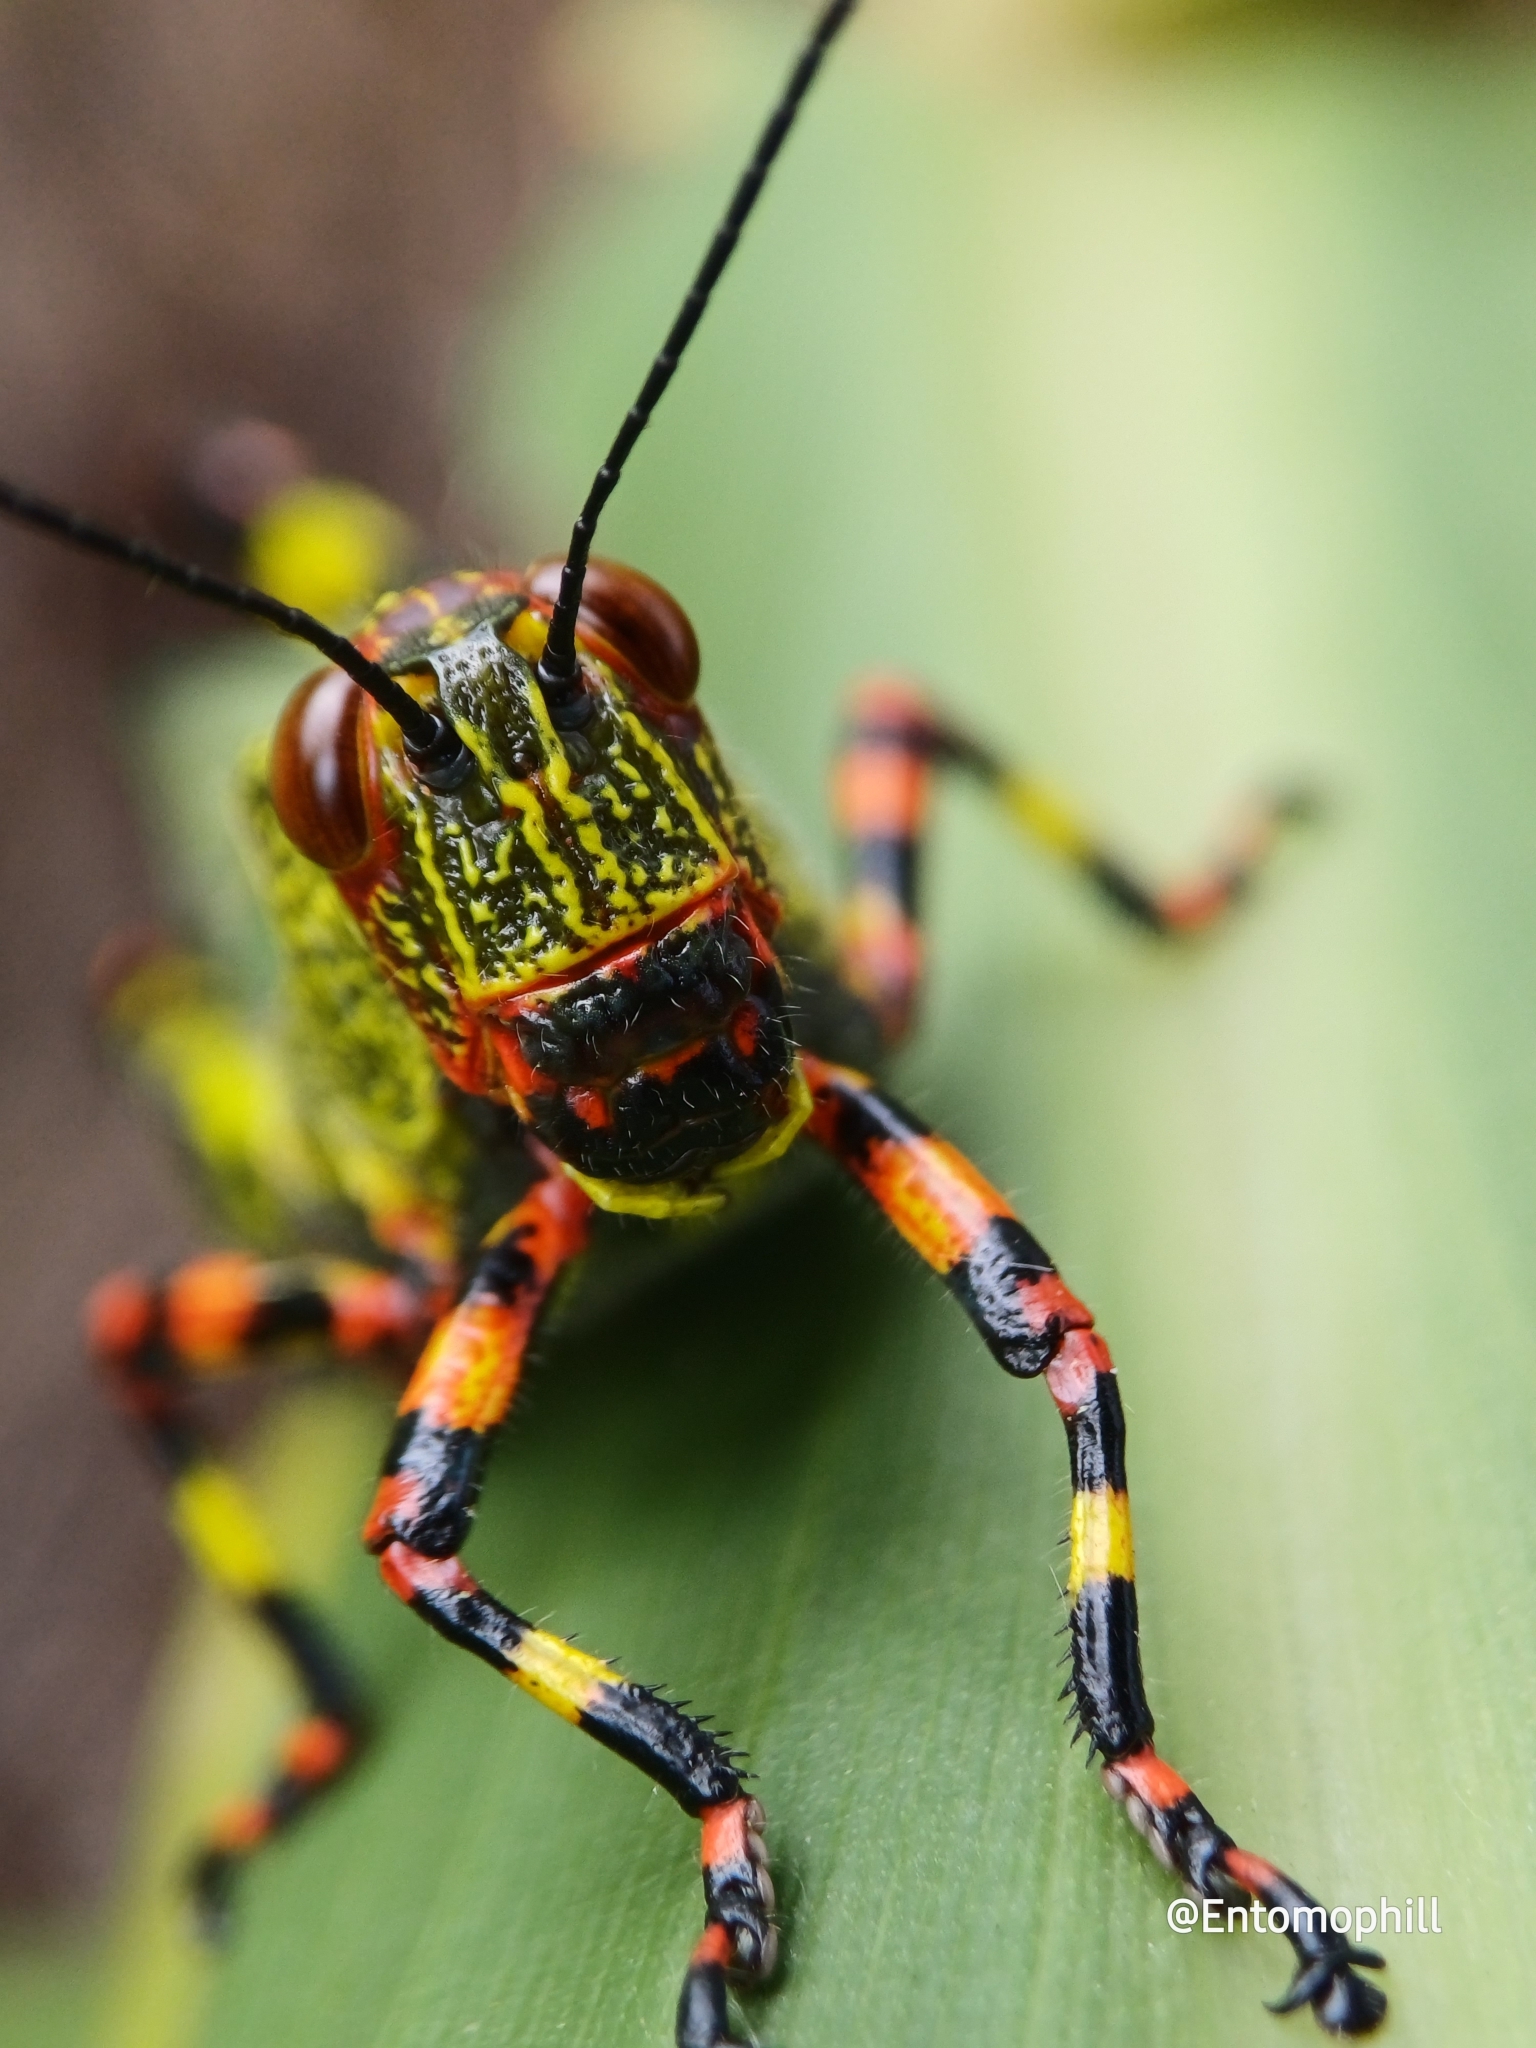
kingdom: Animalia
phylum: Arthropoda
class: Insecta
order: Orthoptera
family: Romaleidae
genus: Zoniopoda
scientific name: Zoniopoda tarsata
